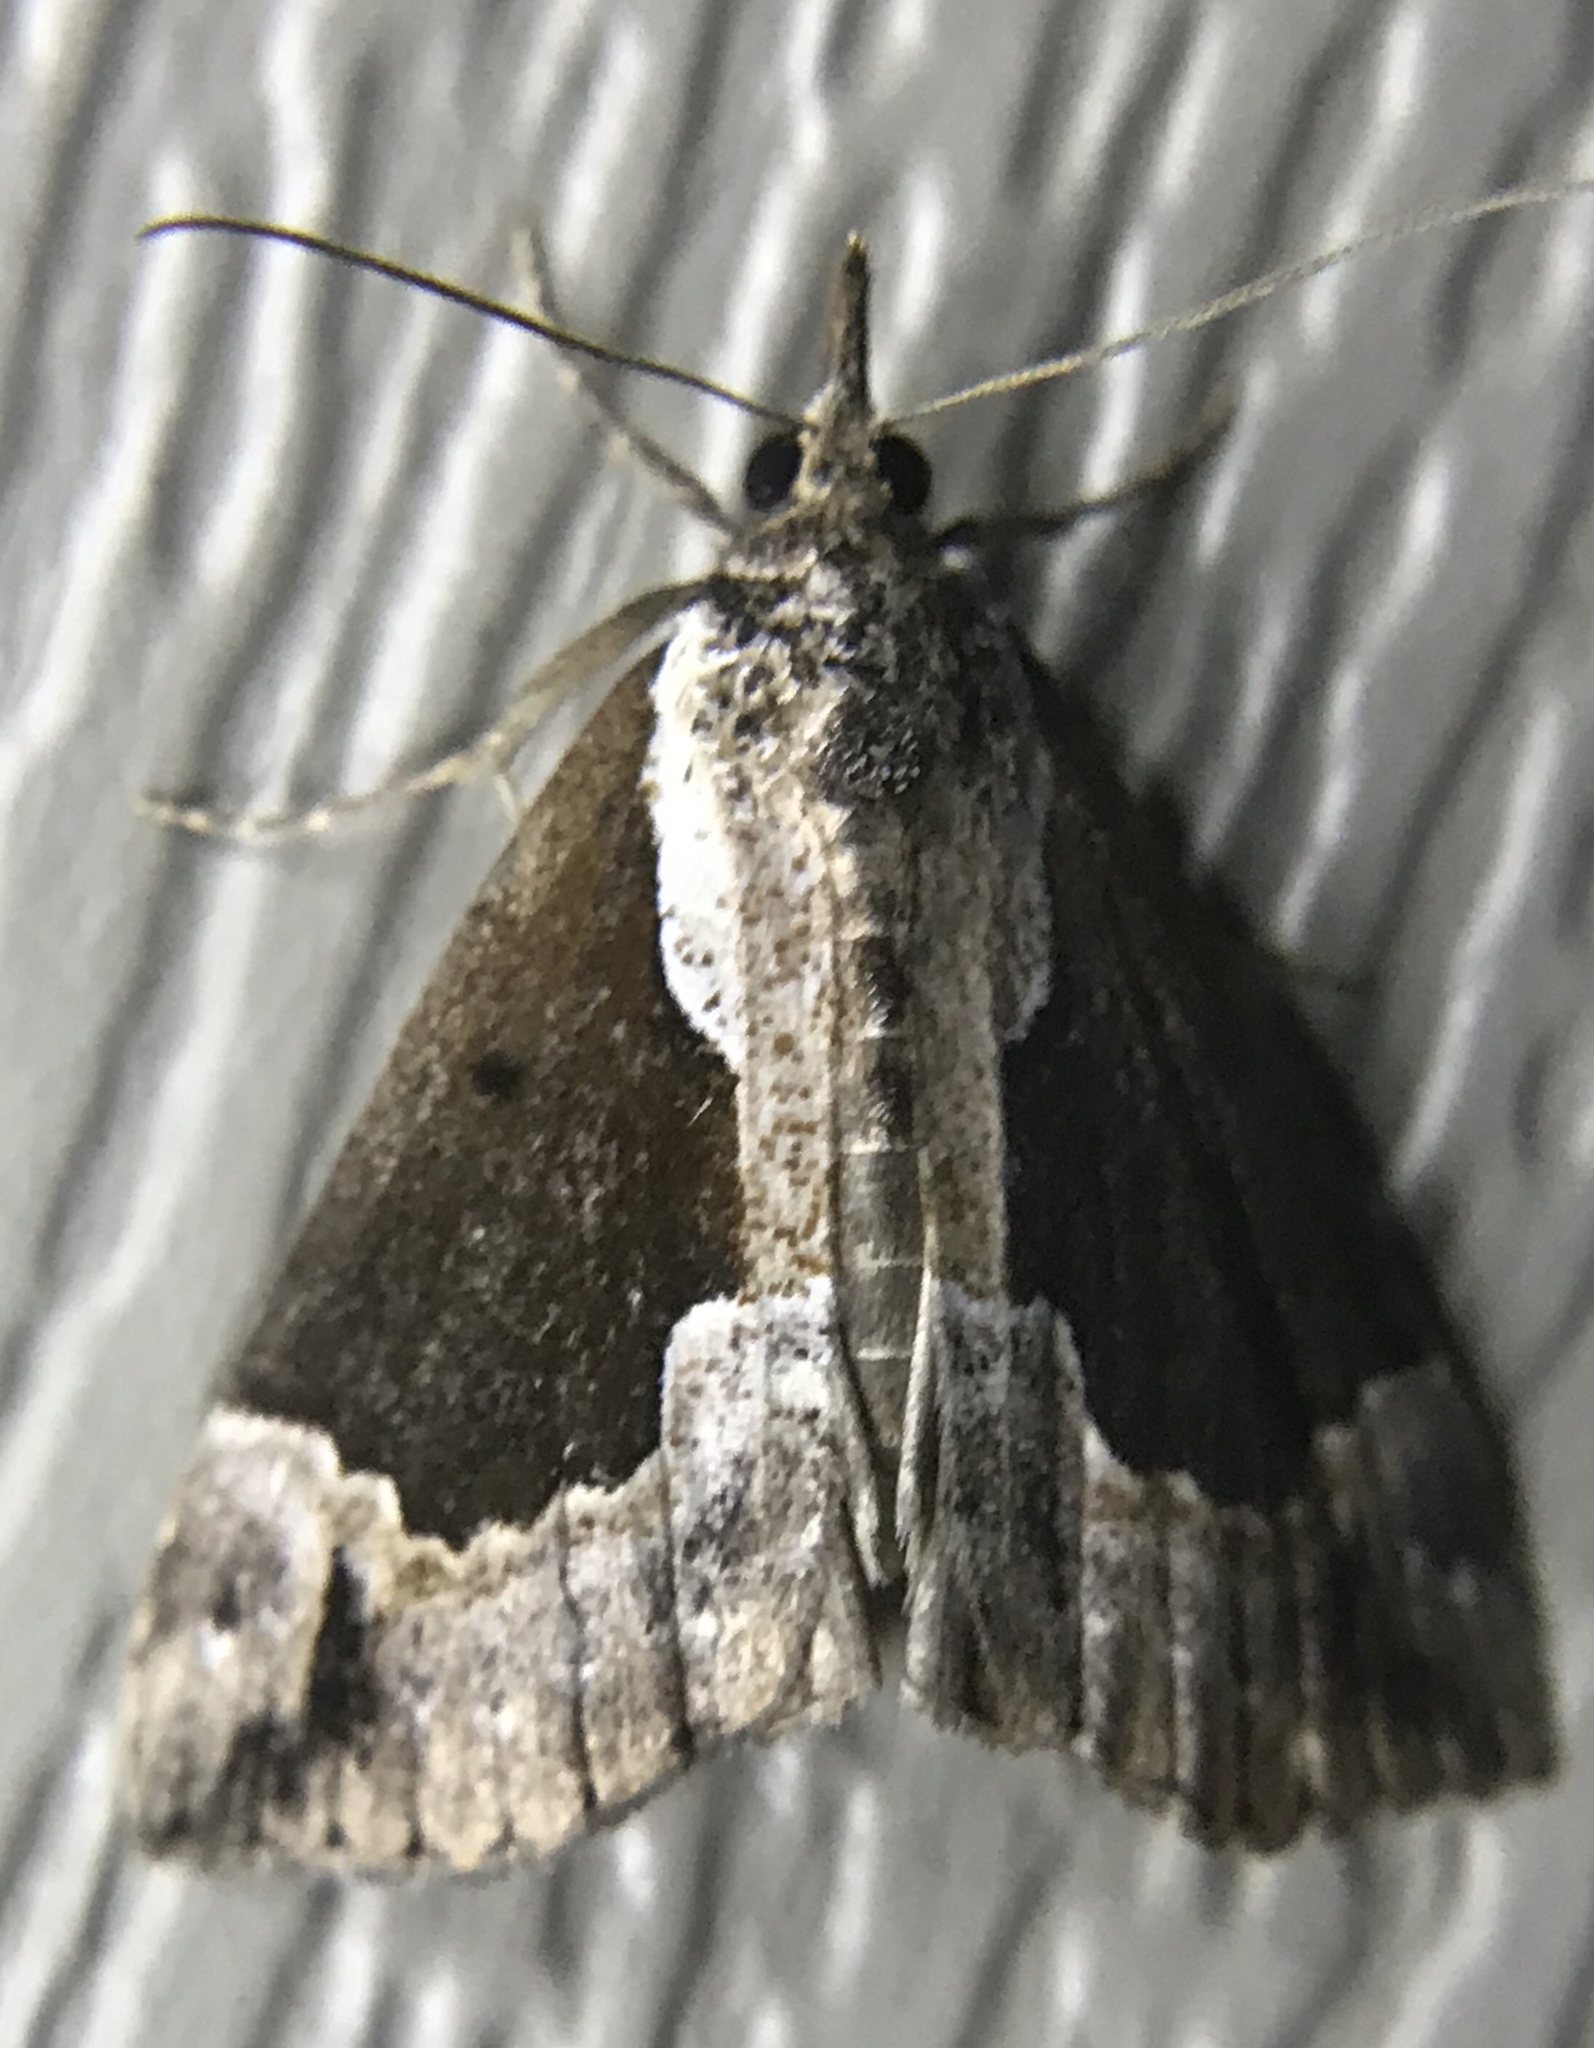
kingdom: Animalia
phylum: Arthropoda
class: Insecta
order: Lepidoptera
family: Erebidae
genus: Hypena
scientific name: Hypena baltimoralis
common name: Baltimore snout
